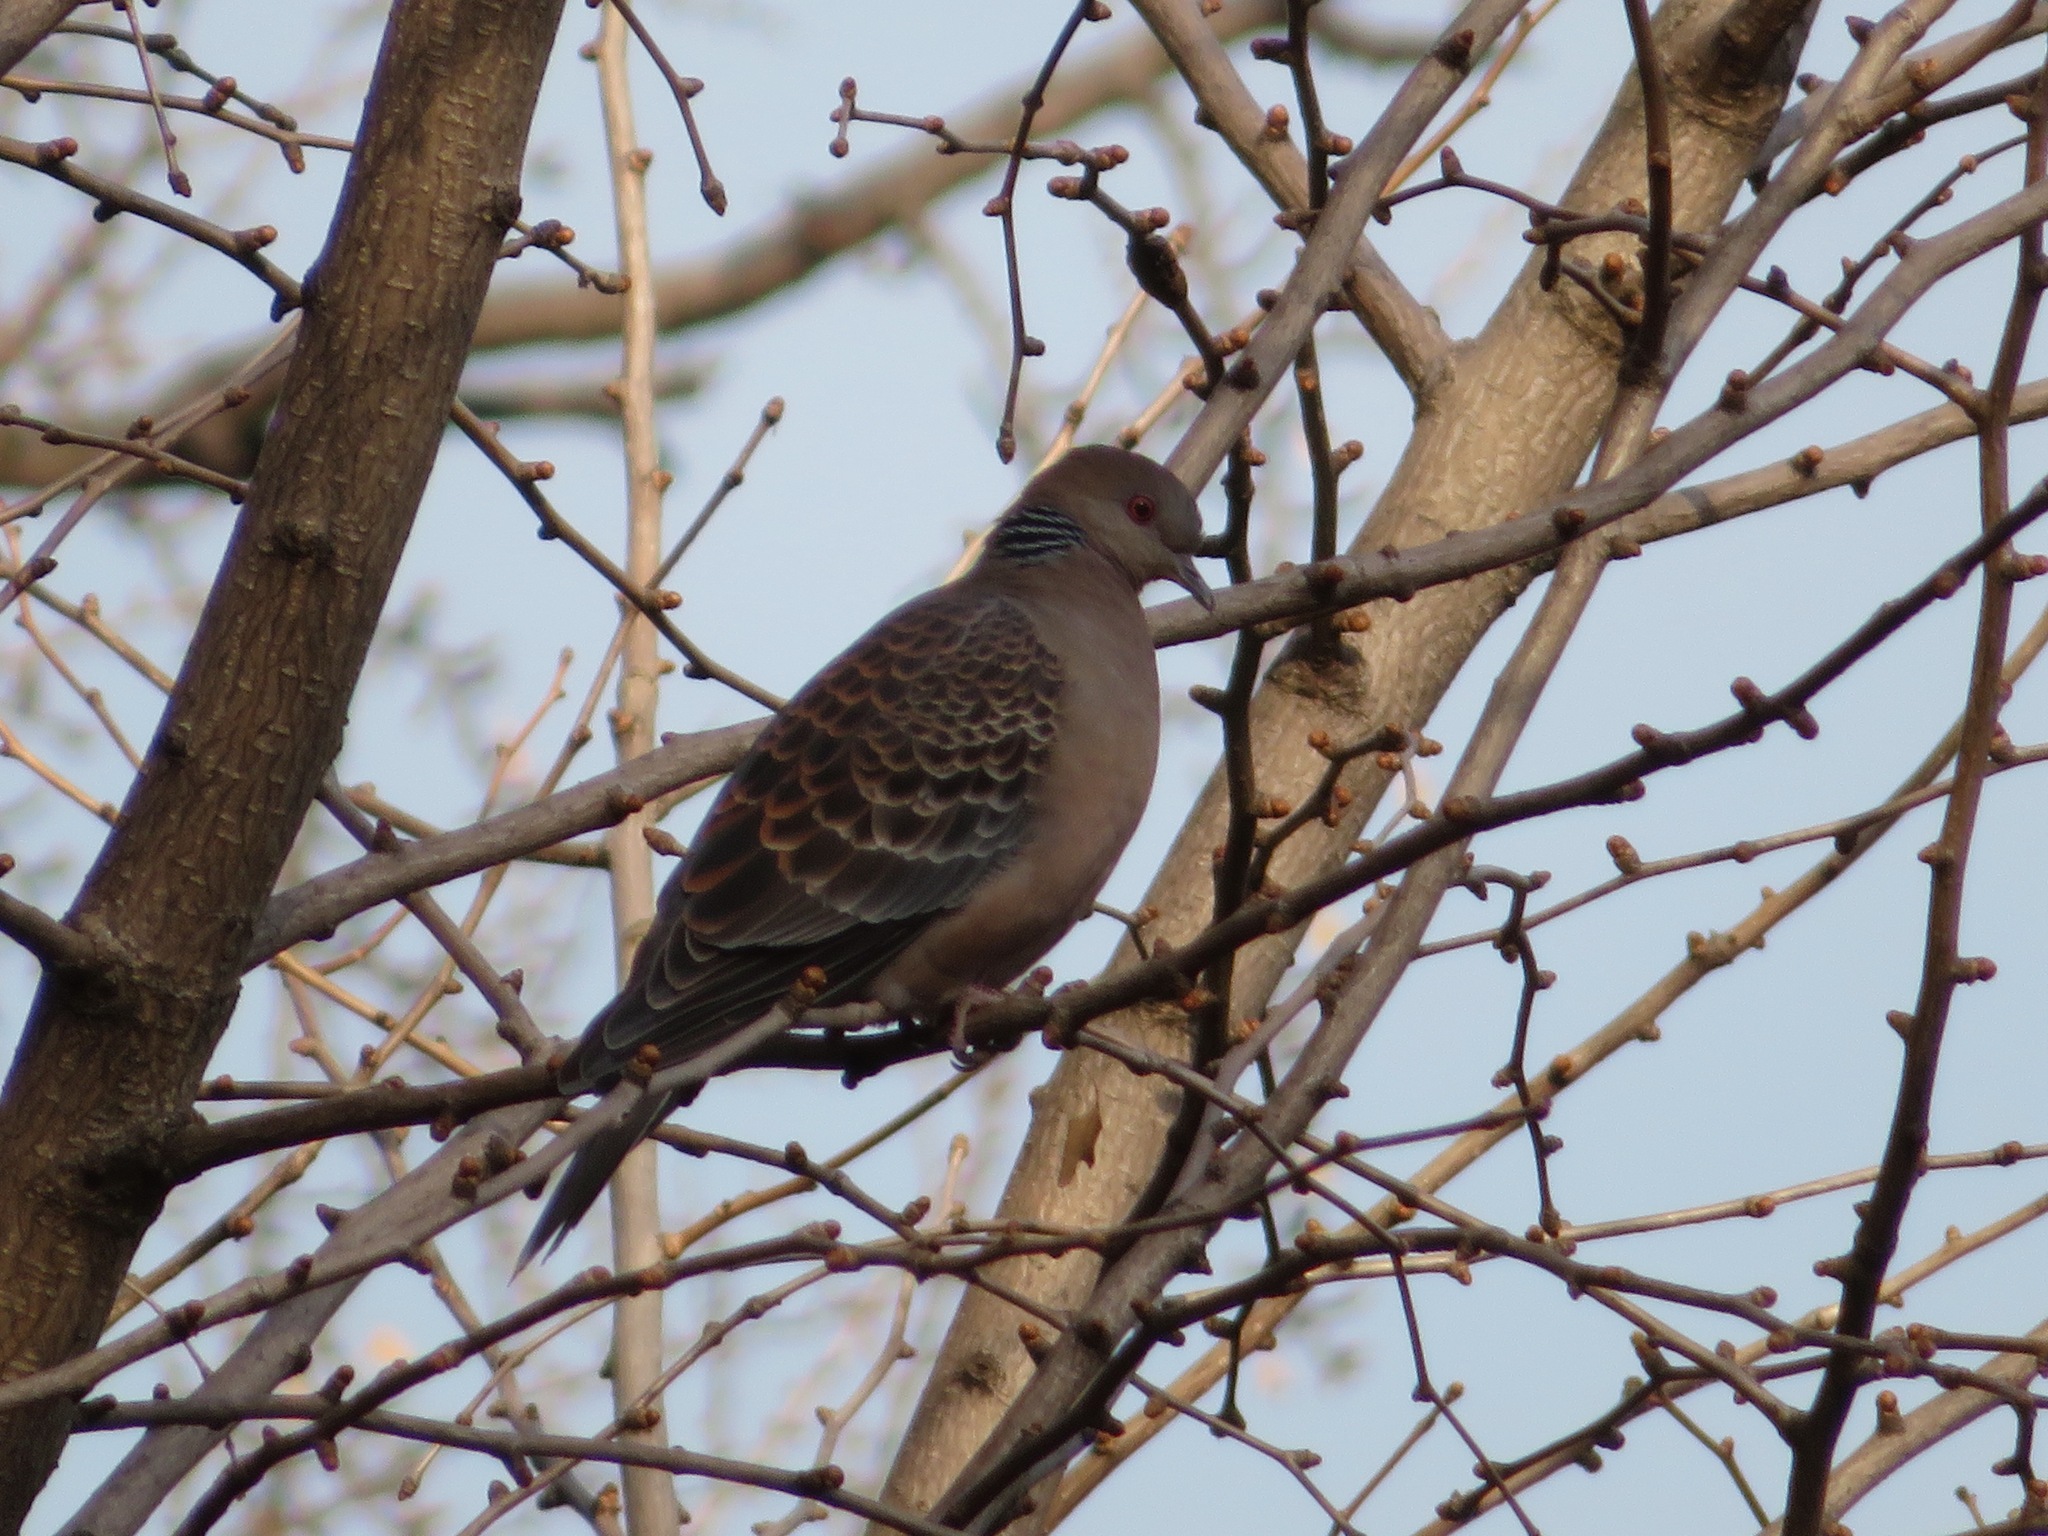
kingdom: Animalia
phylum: Chordata
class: Aves
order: Columbiformes
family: Columbidae
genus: Streptopelia
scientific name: Streptopelia orientalis
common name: Oriental turtle dove
